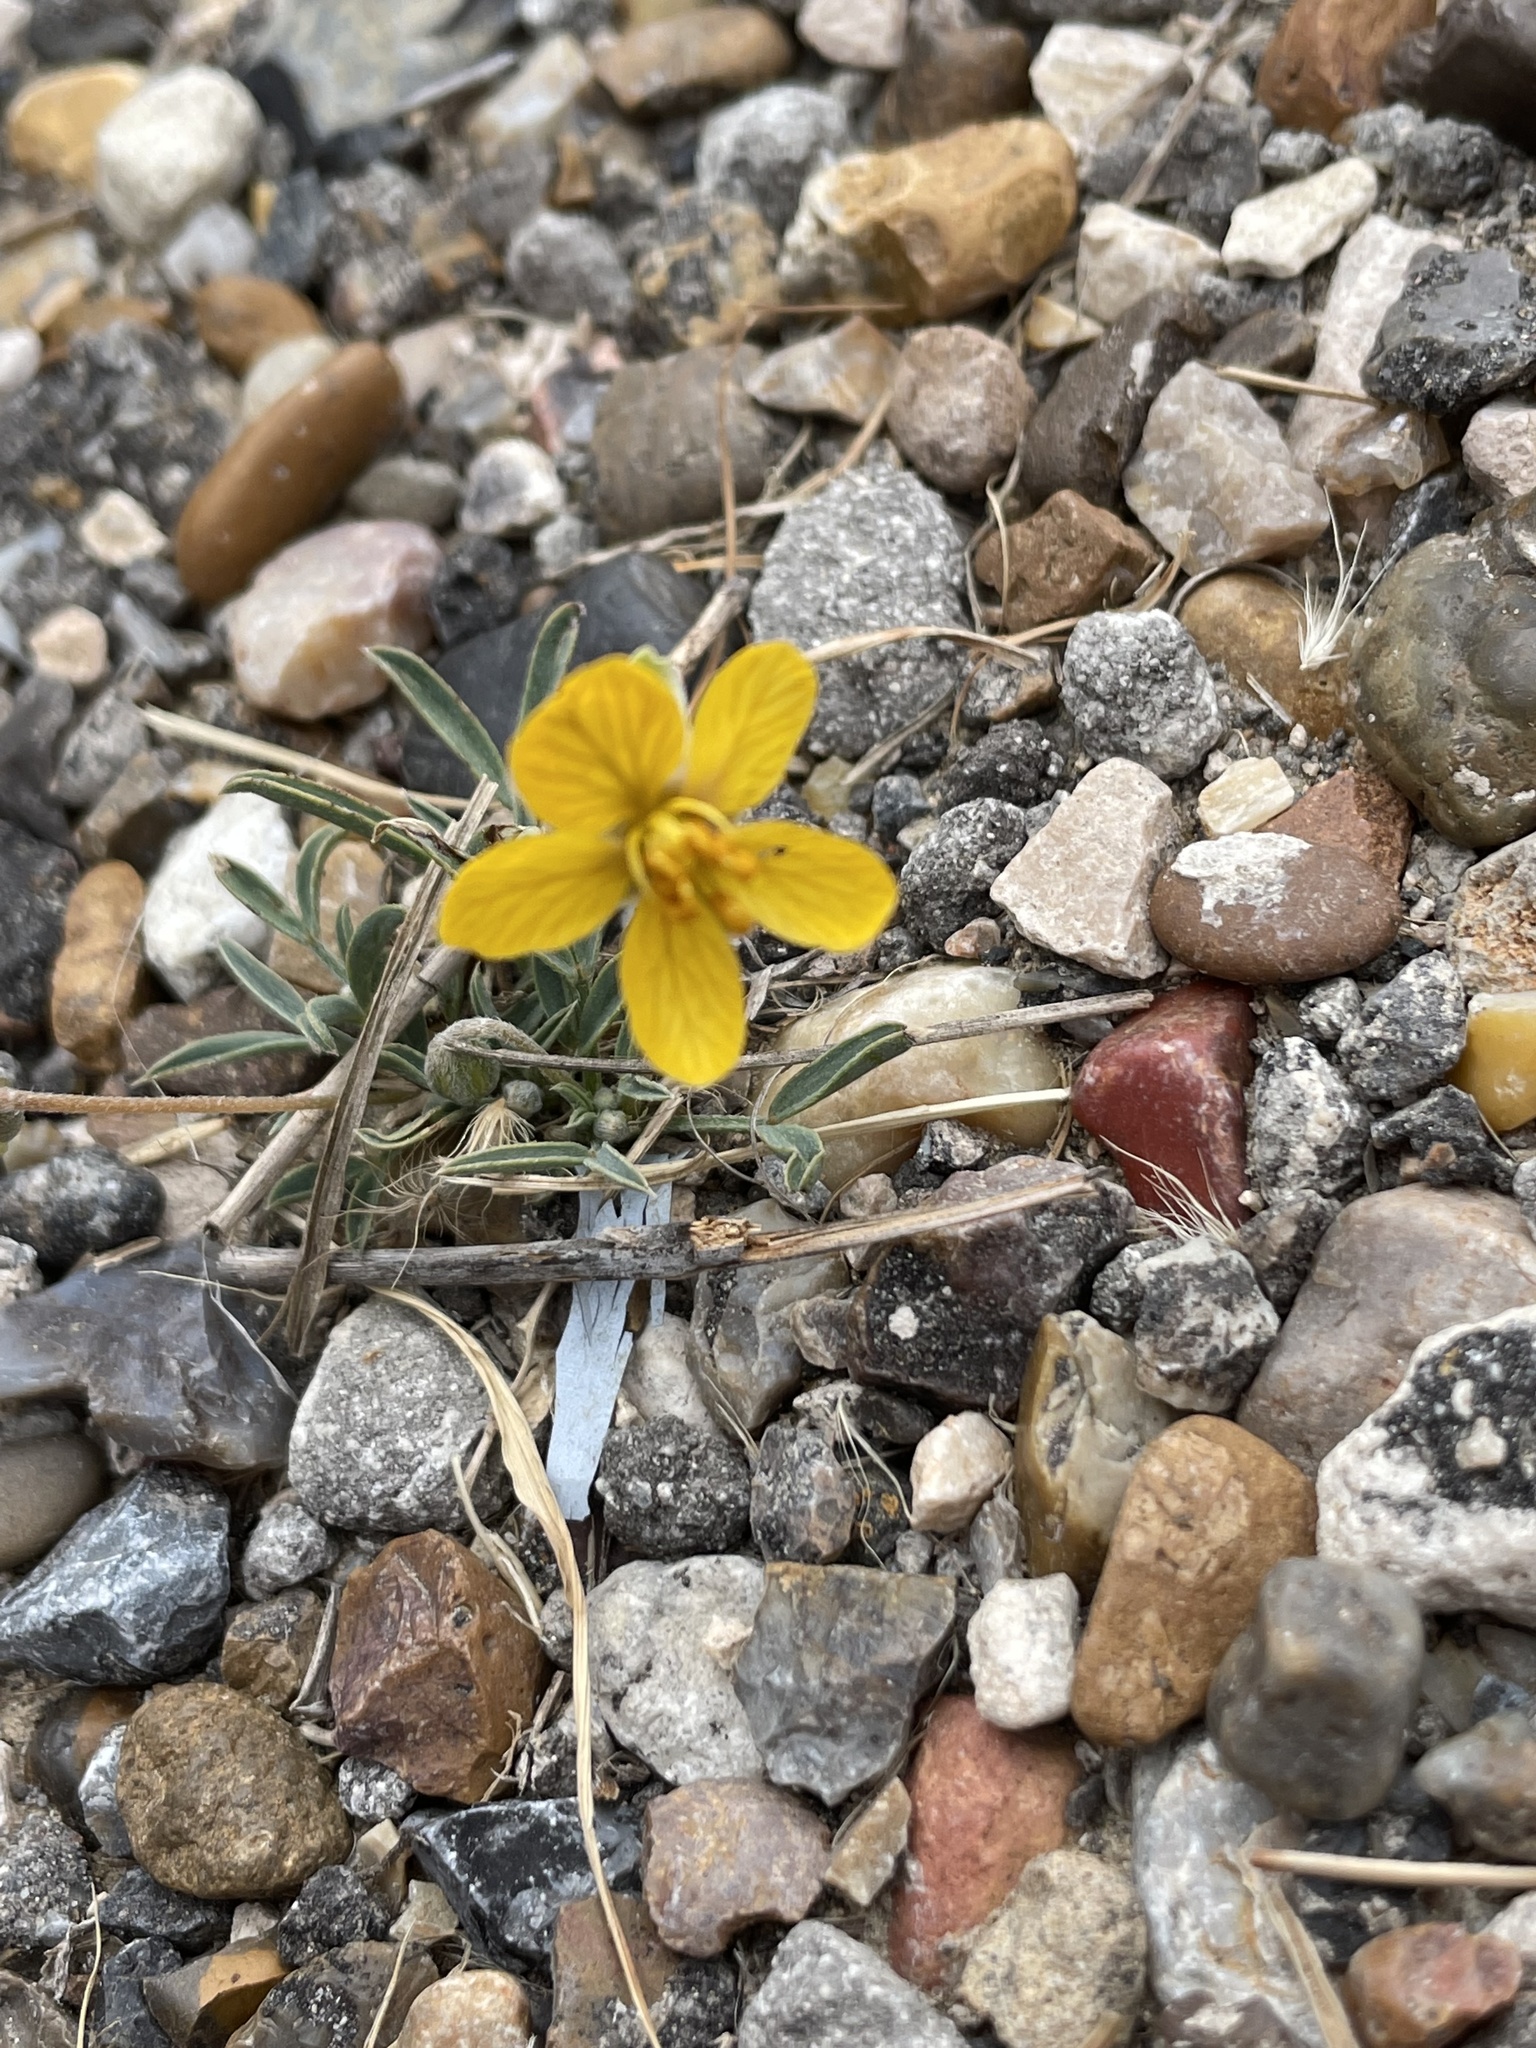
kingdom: Plantae
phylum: Tracheophyta
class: Magnoliopsida
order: Fabales
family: Fabaceae
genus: Senna
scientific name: Senna pumilio
